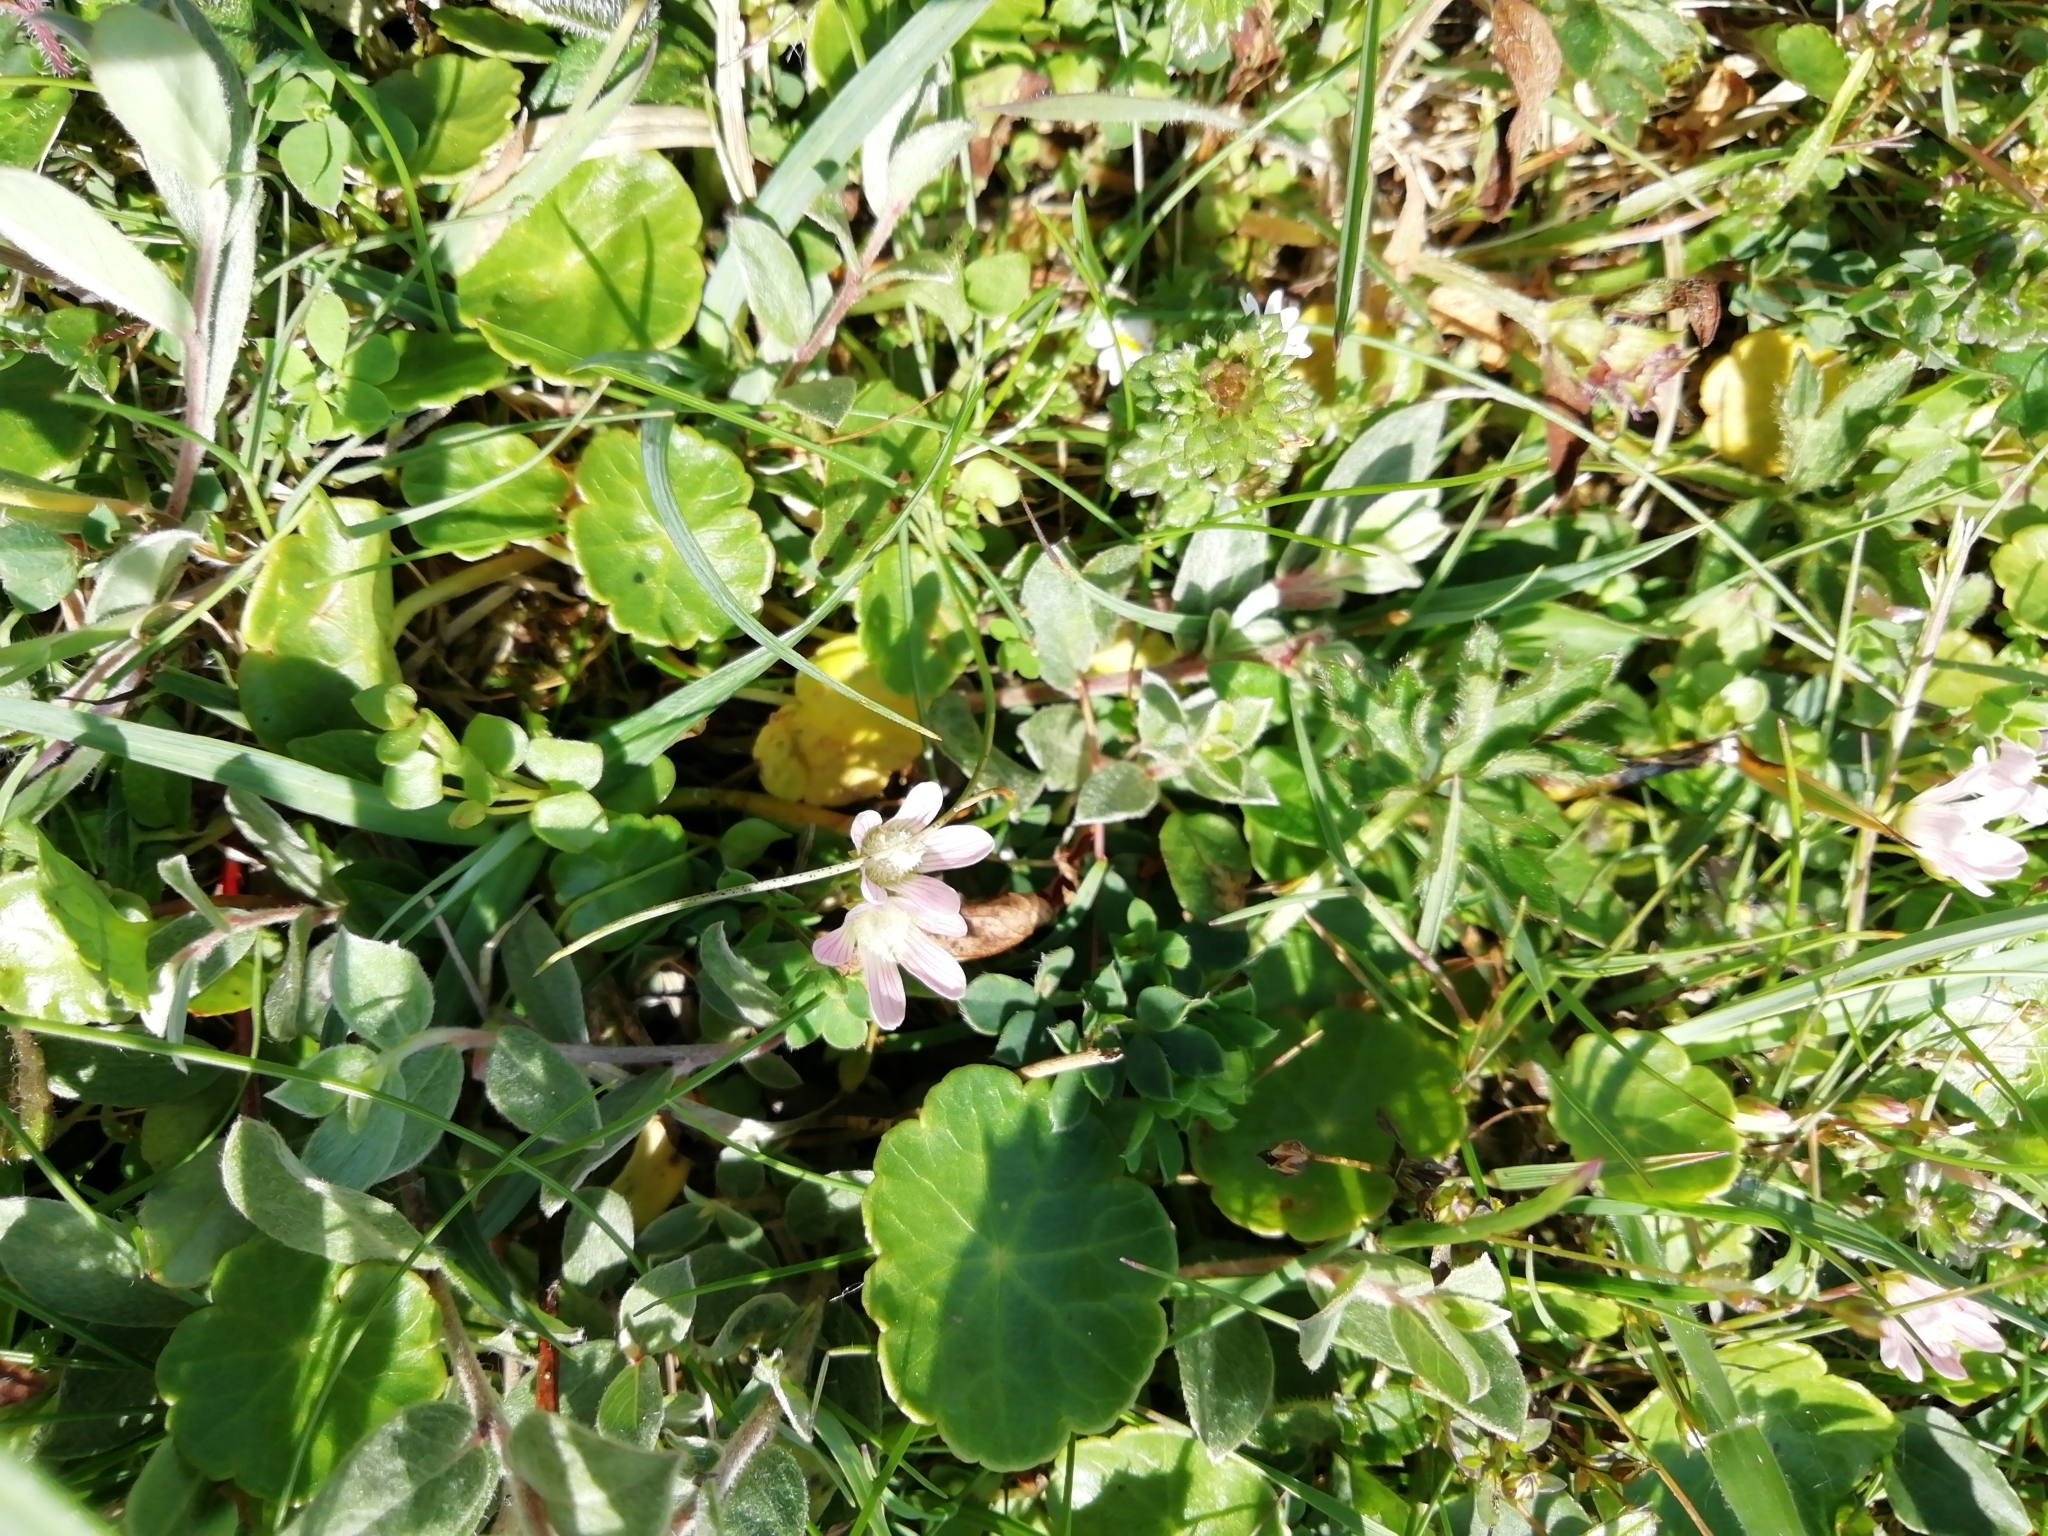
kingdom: Plantae
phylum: Tracheophyta
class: Magnoliopsida
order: Ericales
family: Primulaceae
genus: Lysimachia
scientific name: Lysimachia tenella
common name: European bog pimpernel
